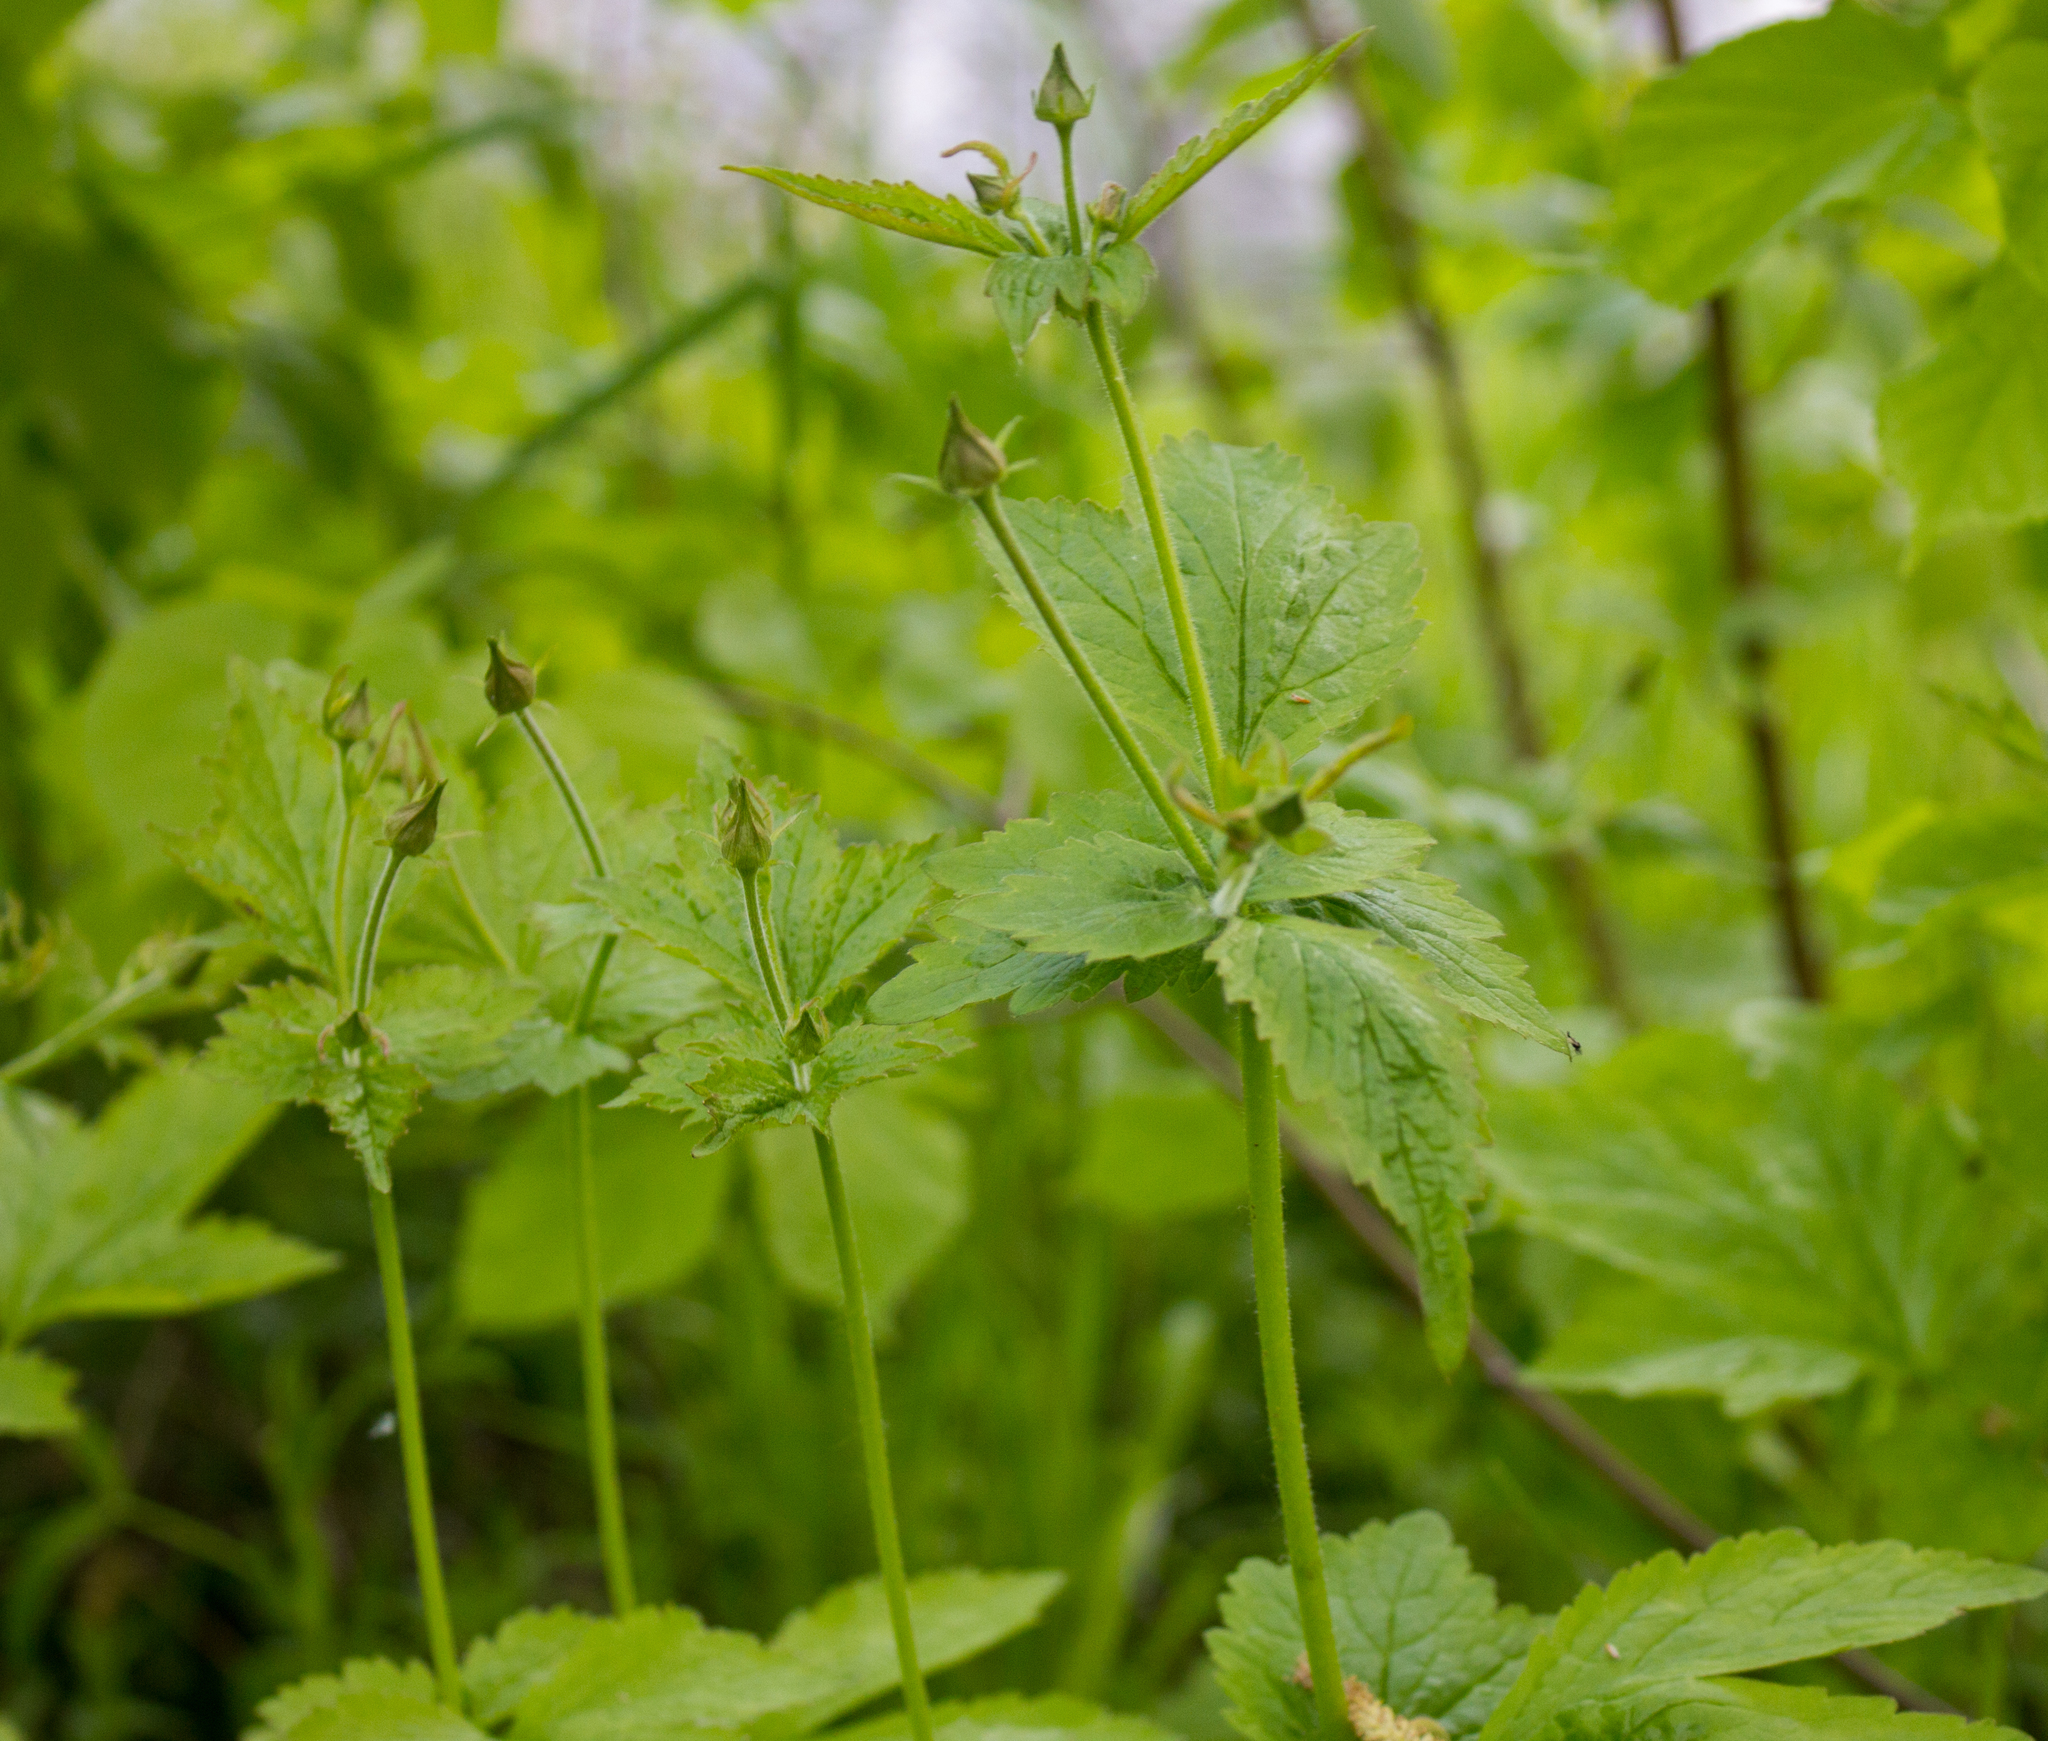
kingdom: Plantae
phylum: Tracheophyta
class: Magnoliopsida
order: Rosales
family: Rosaceae
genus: Geum
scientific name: Geum urbanum
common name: Wood avens
